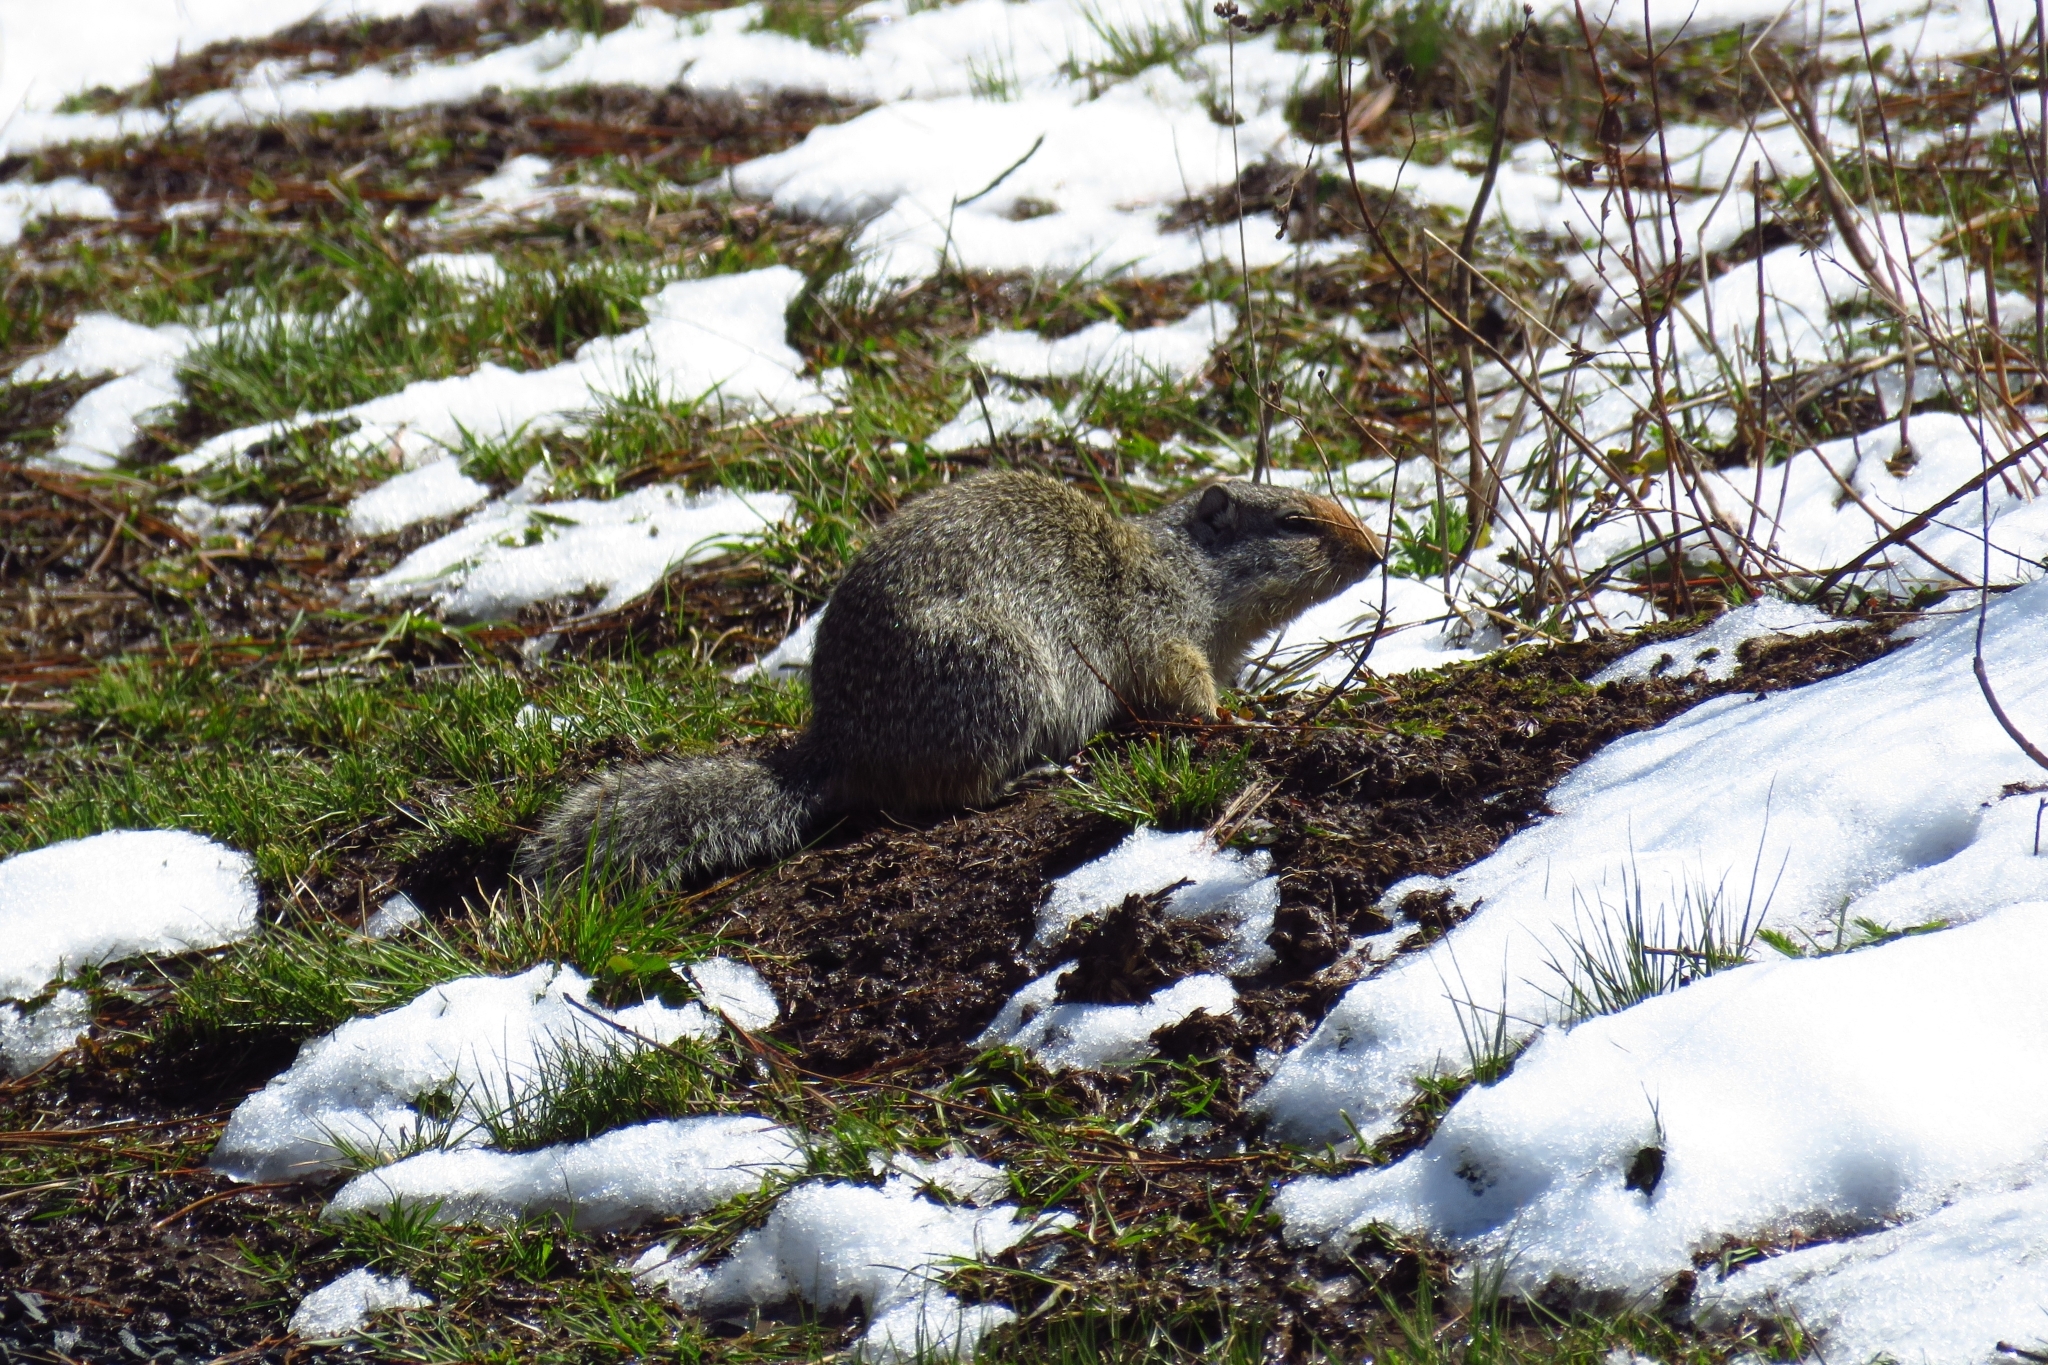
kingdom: Animalia
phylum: Chordata
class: Mammalia
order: Rodentia
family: Sciuridae
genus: Urocitellus
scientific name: Urocitellus columbianus
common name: Columbian ground squirrel
